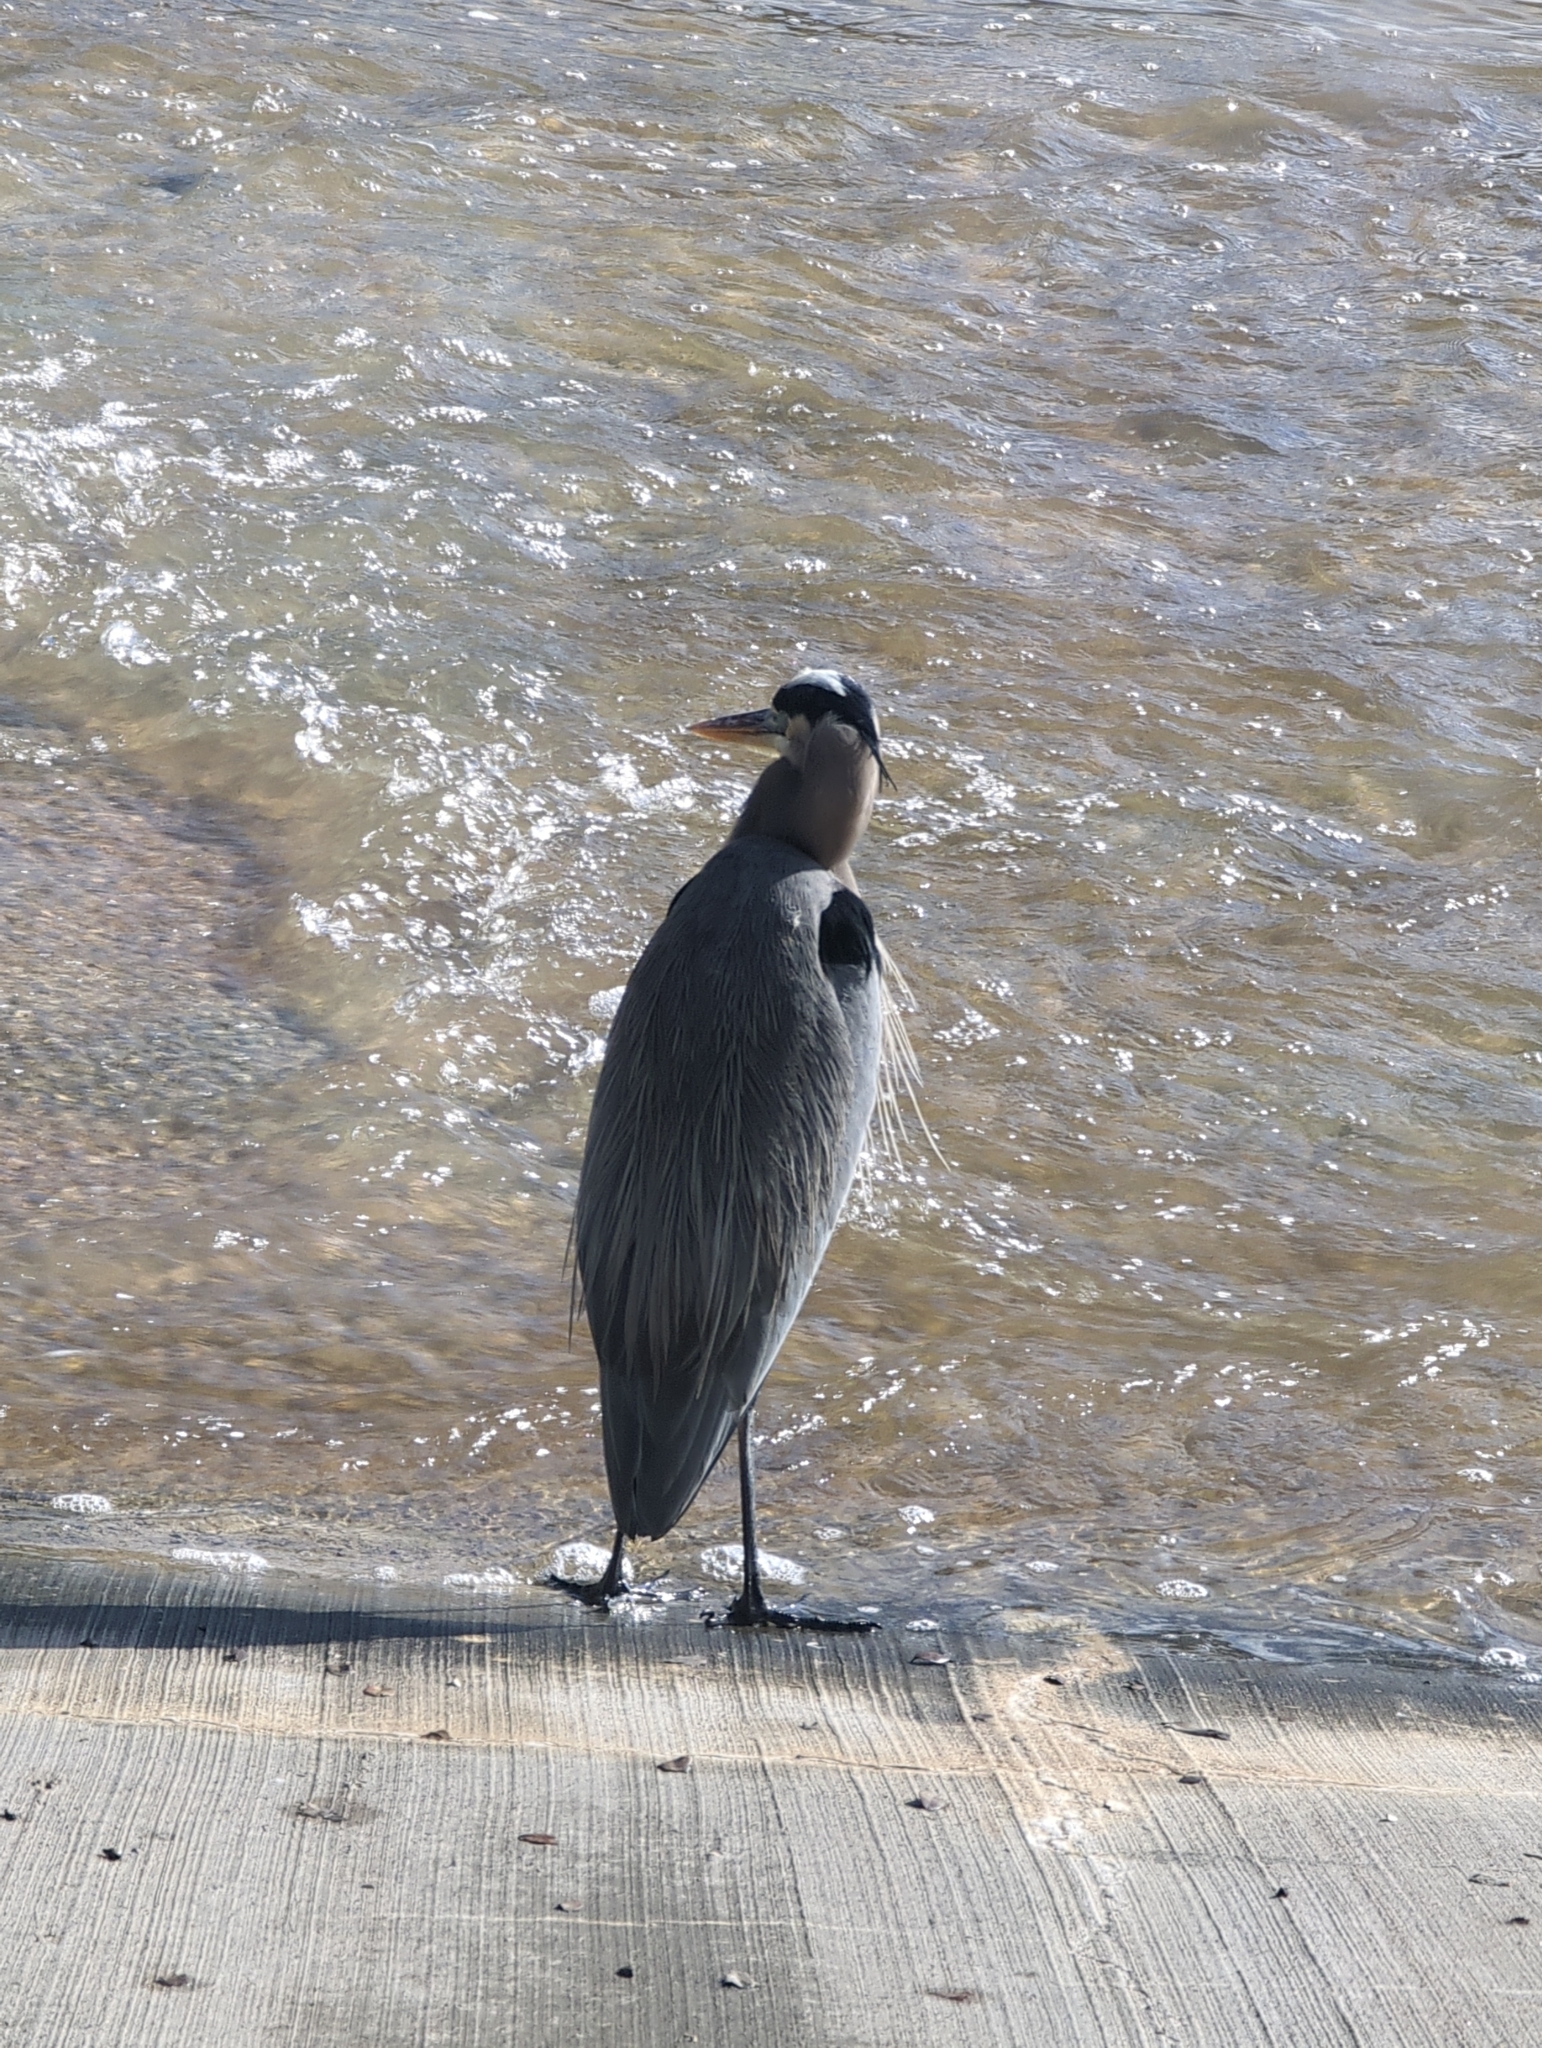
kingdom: Animalia
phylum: Chordata
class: Aves
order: Pelecaniformes
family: Ardeidae
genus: Ardea
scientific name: Ardea herodias
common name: Great blue heron
